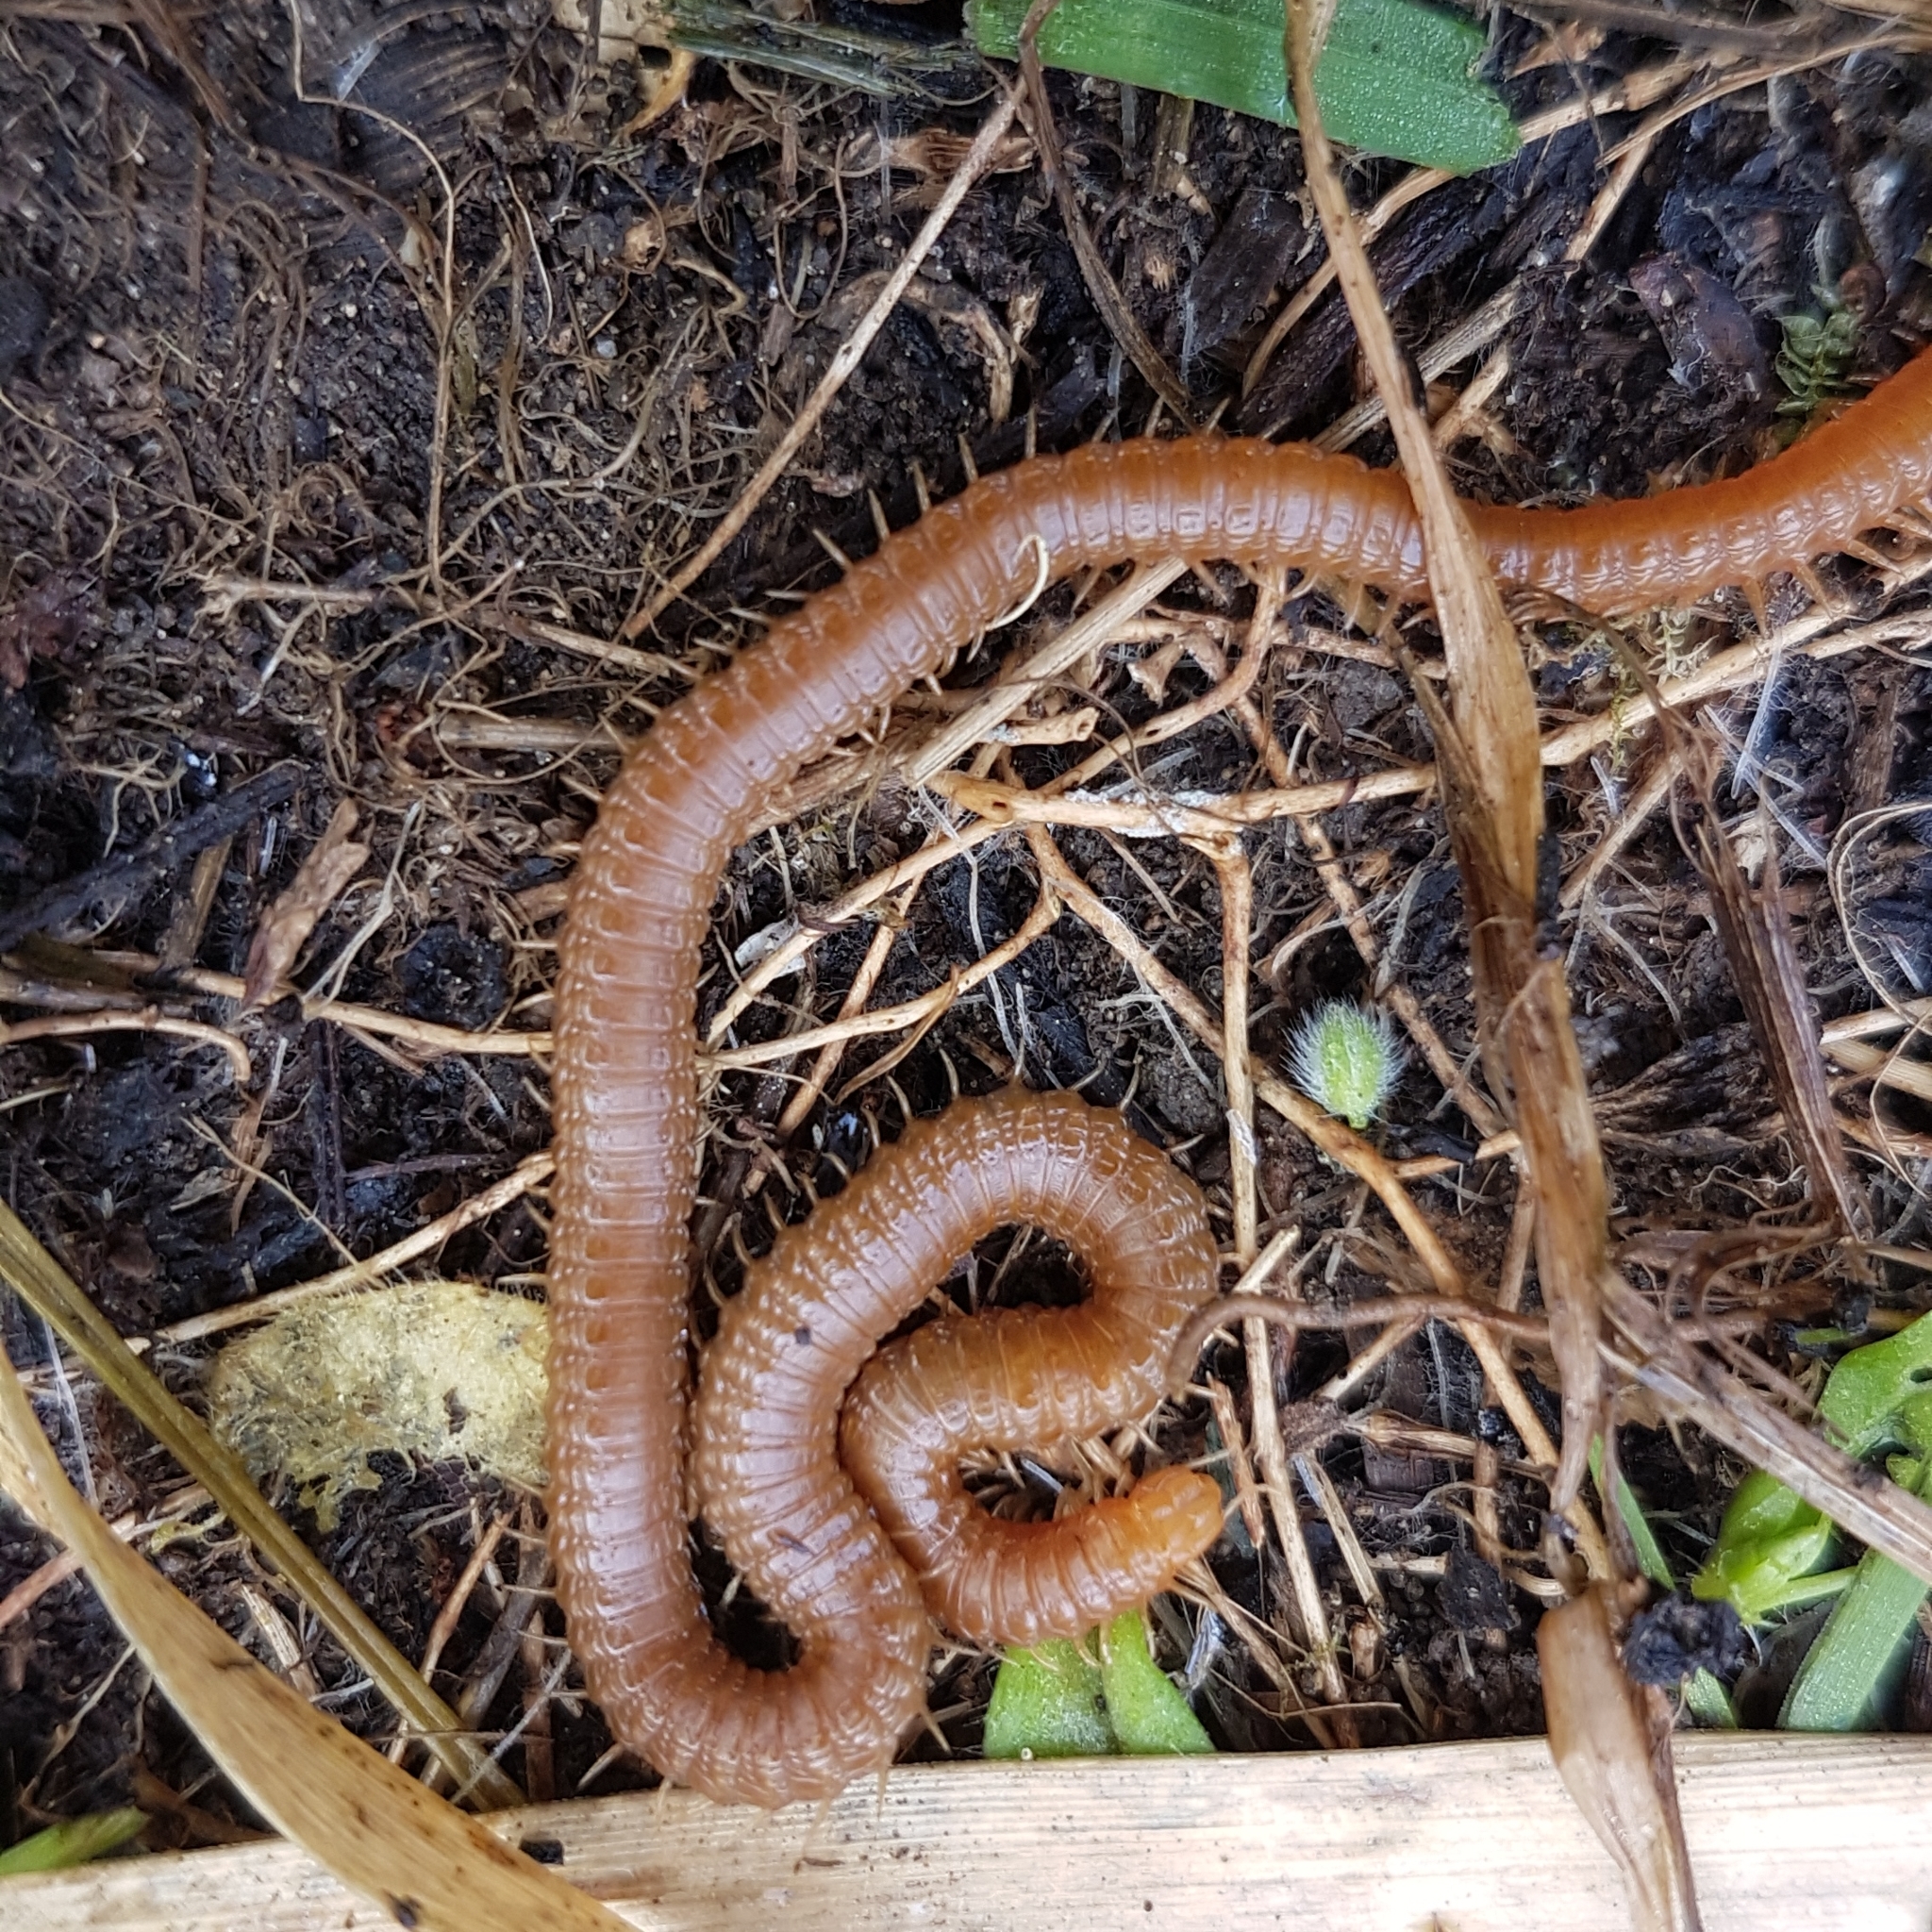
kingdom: Animalia
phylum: Arthropoda
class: Chilopoda
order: Geophilomorpha
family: Himantariidae
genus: Himantarium
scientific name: Himantarium gabrielis
